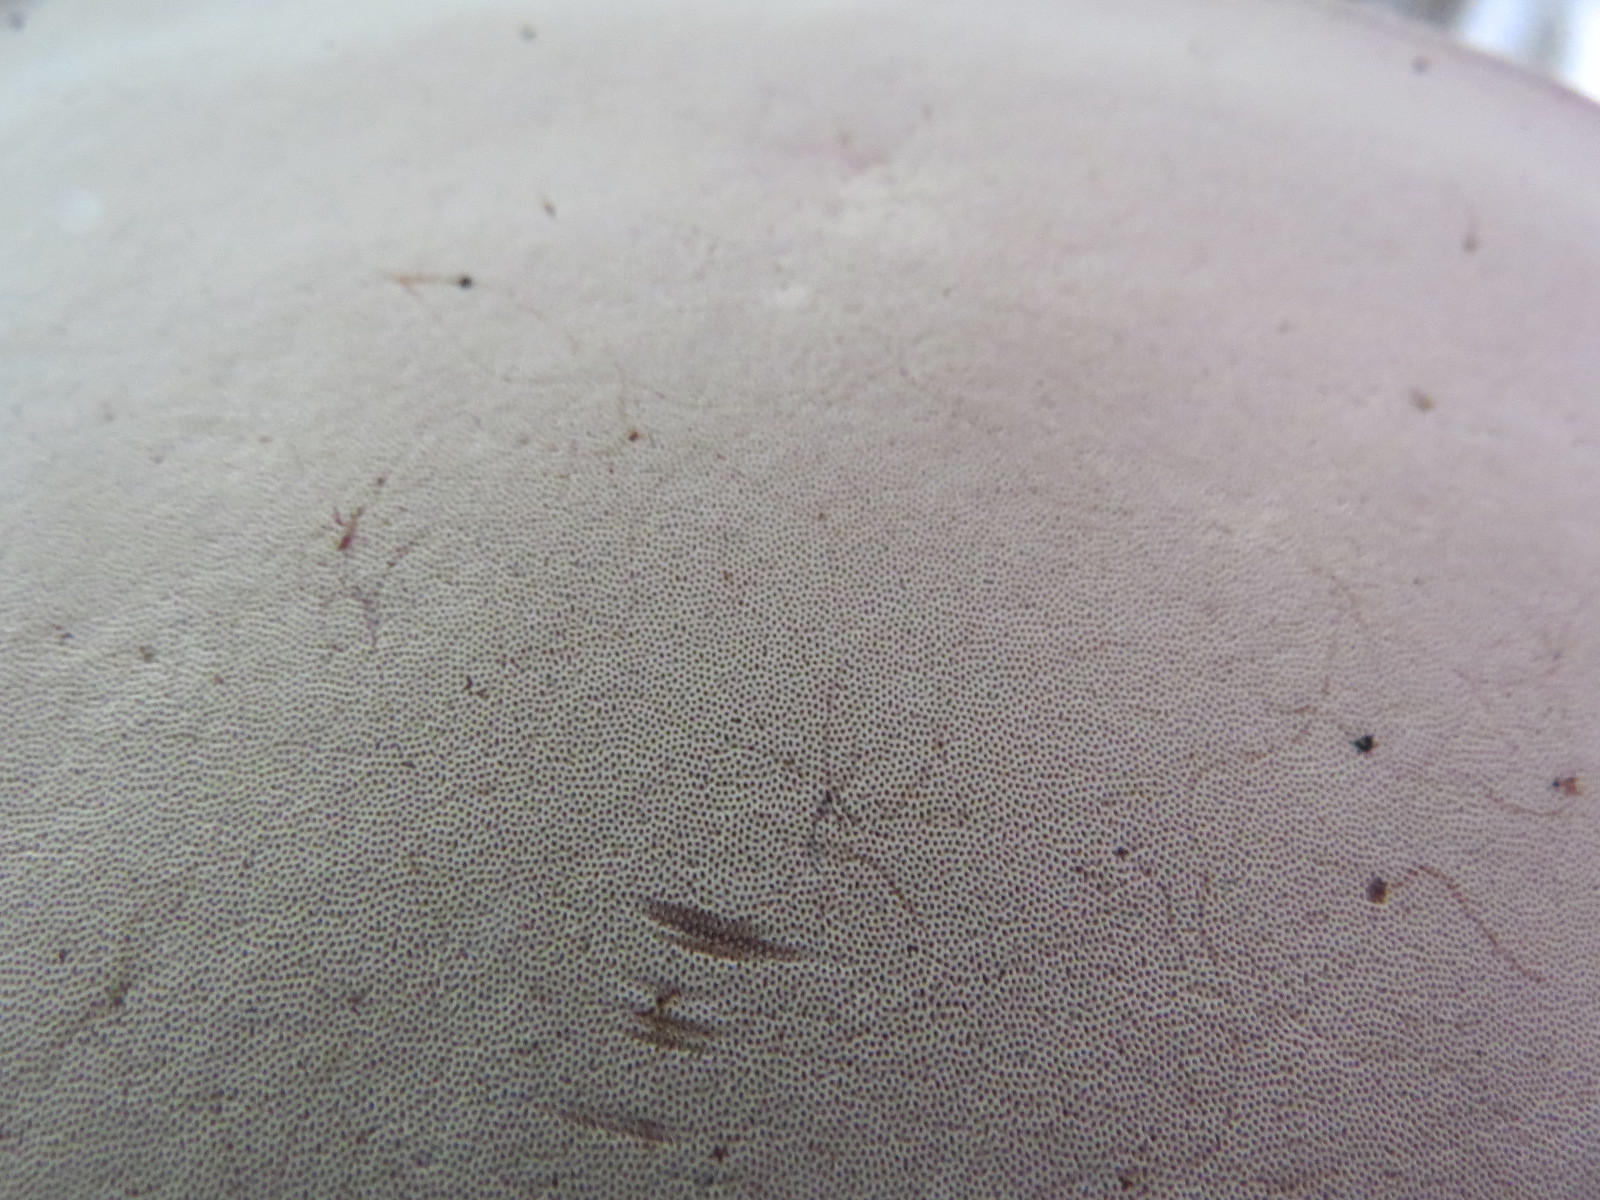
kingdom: Fungi
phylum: Basidiomycota
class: Agaricomycetes
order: Polyporales
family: Polyporaceae
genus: Ganoderma
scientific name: Ganoderma applanatum
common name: Artist's bracket
